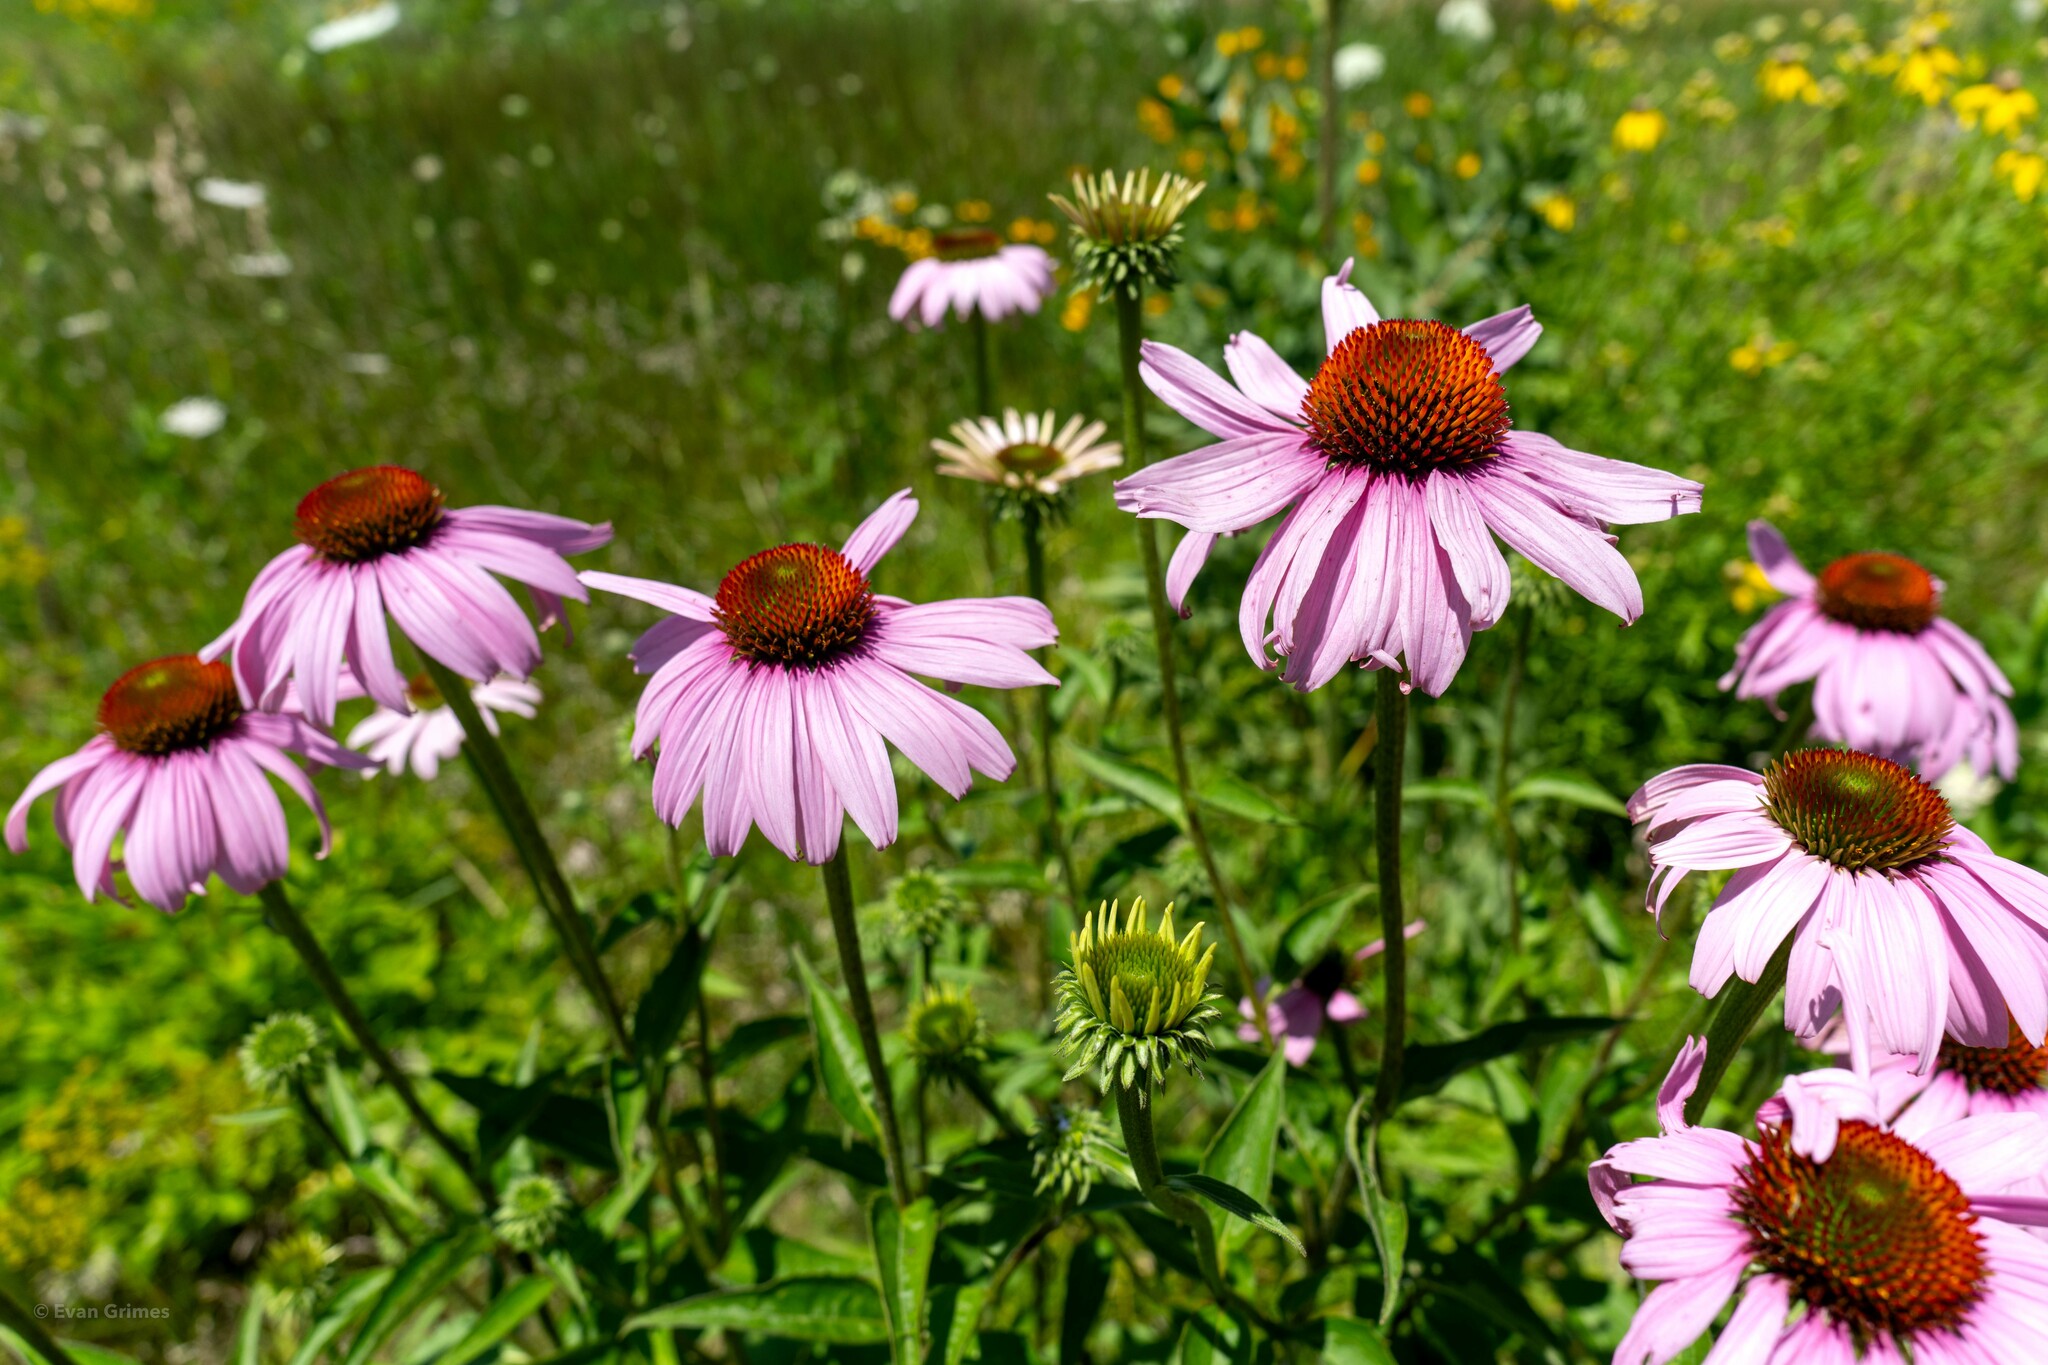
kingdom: Plantae
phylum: Tracheophyta
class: Magnoliopsida
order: Asterales
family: Asteraceae
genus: Echinacea
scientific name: Echinacea purpurea
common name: Broad-leaved purple coneflower
